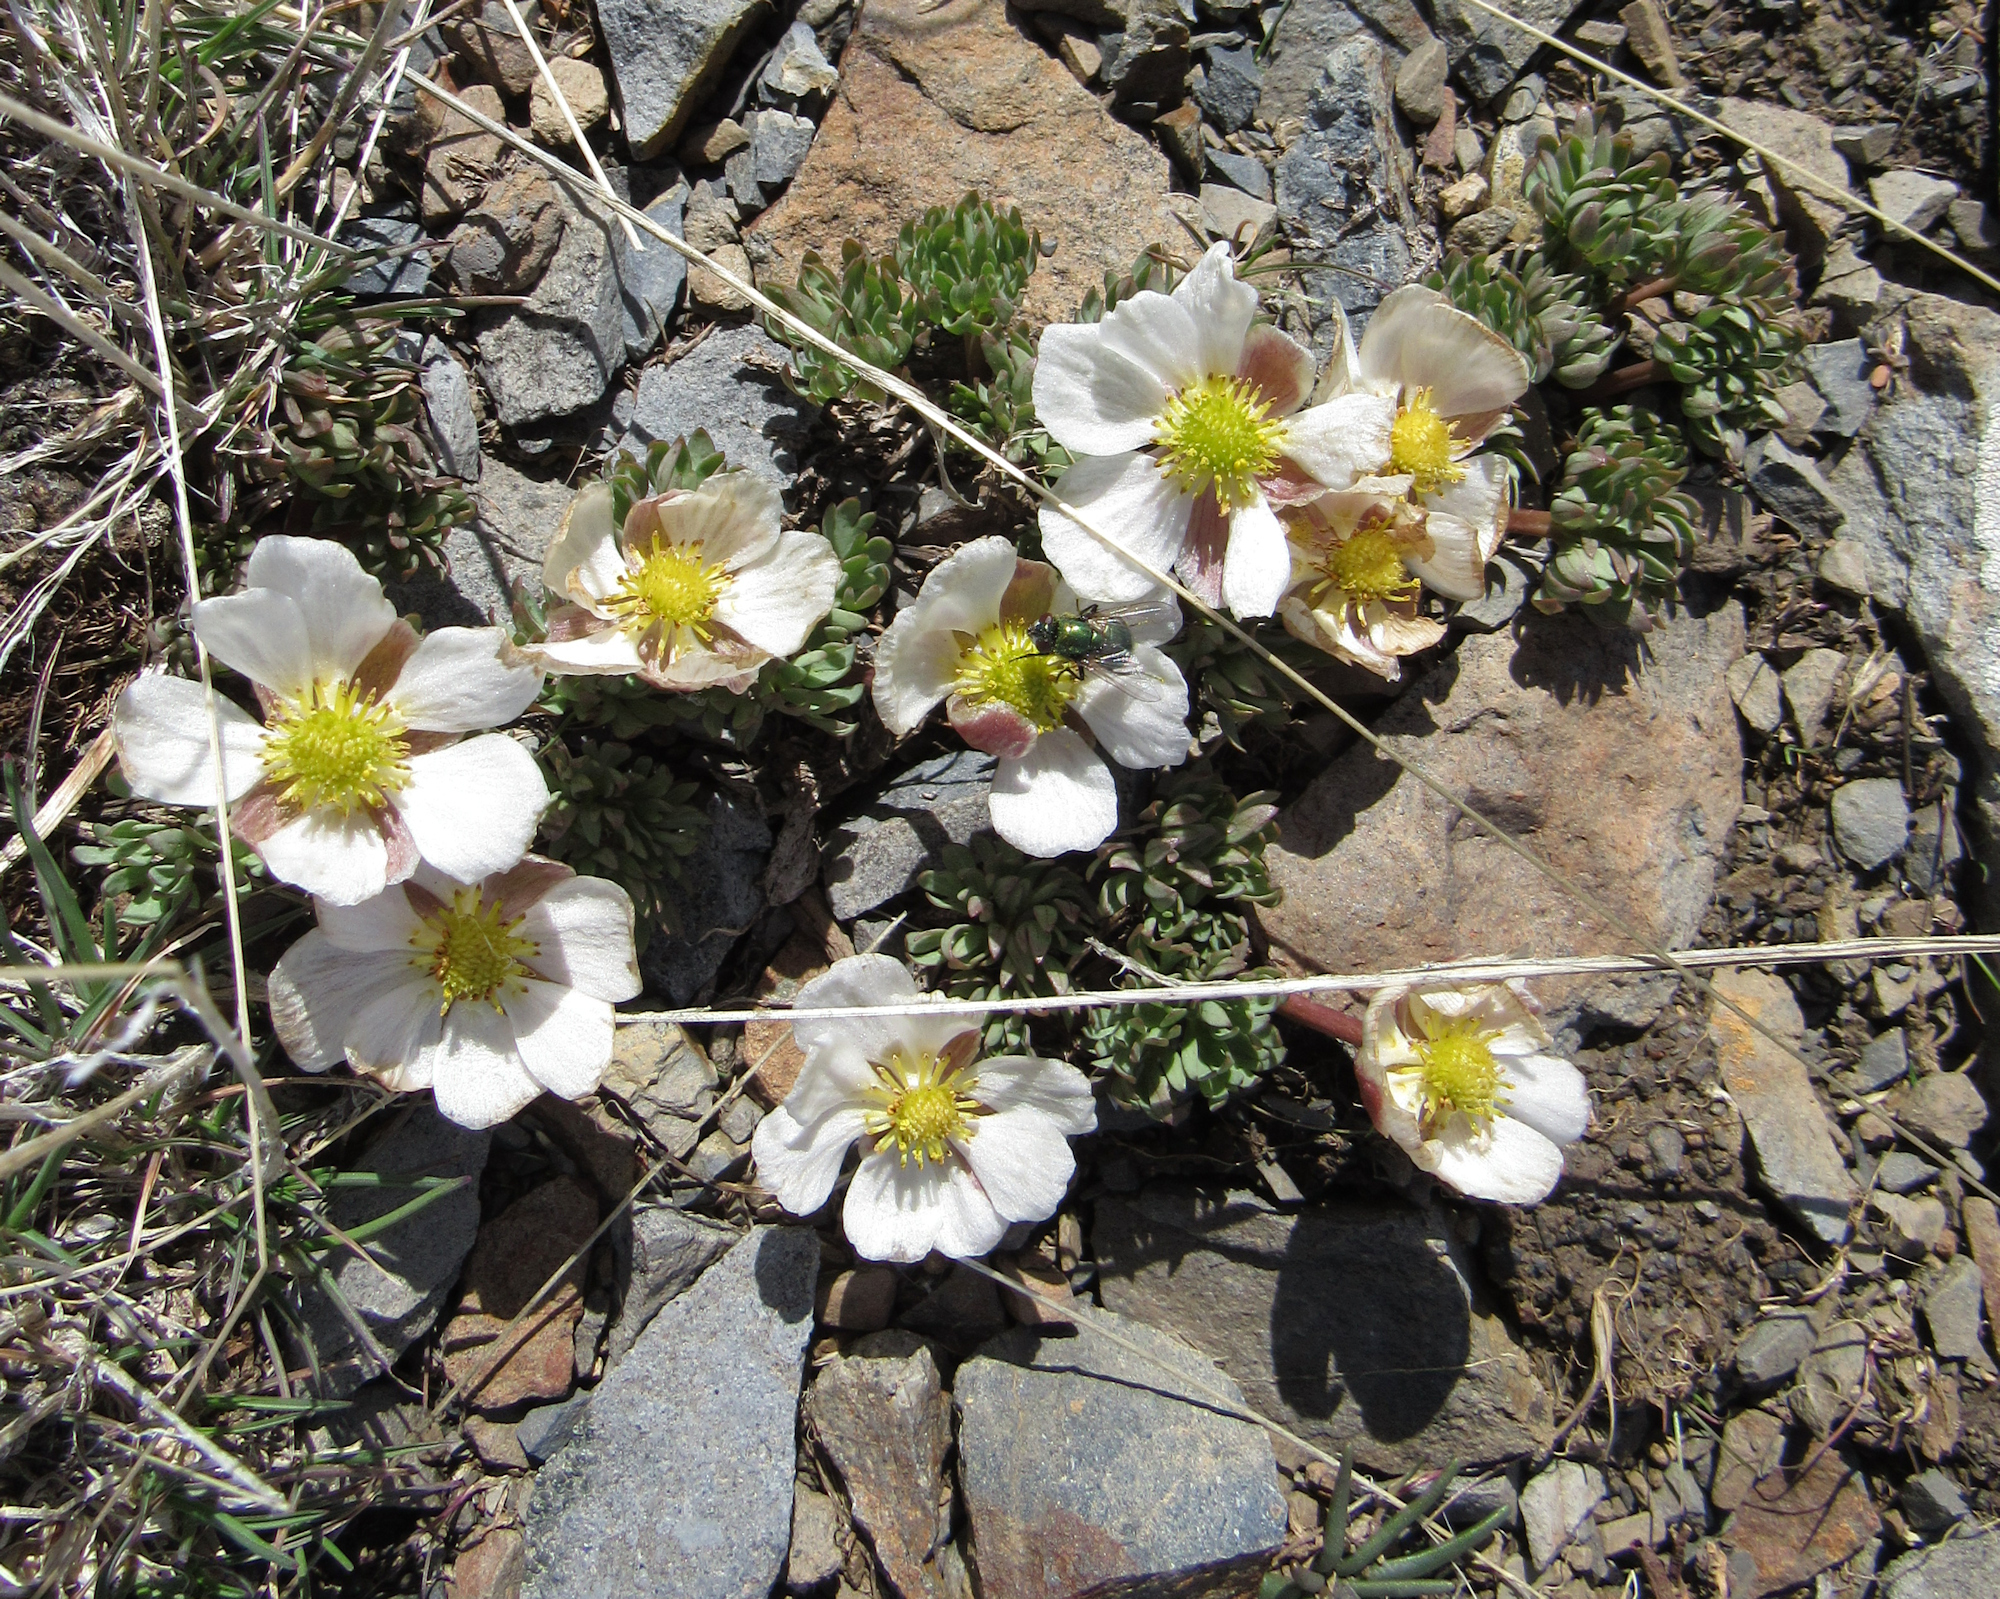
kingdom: Plantae
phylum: Tracheophyta
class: Magnoliopsida
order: Ranunculales
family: Ranunculaceae
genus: Beckwithia
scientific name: Beckwithia andersonii
